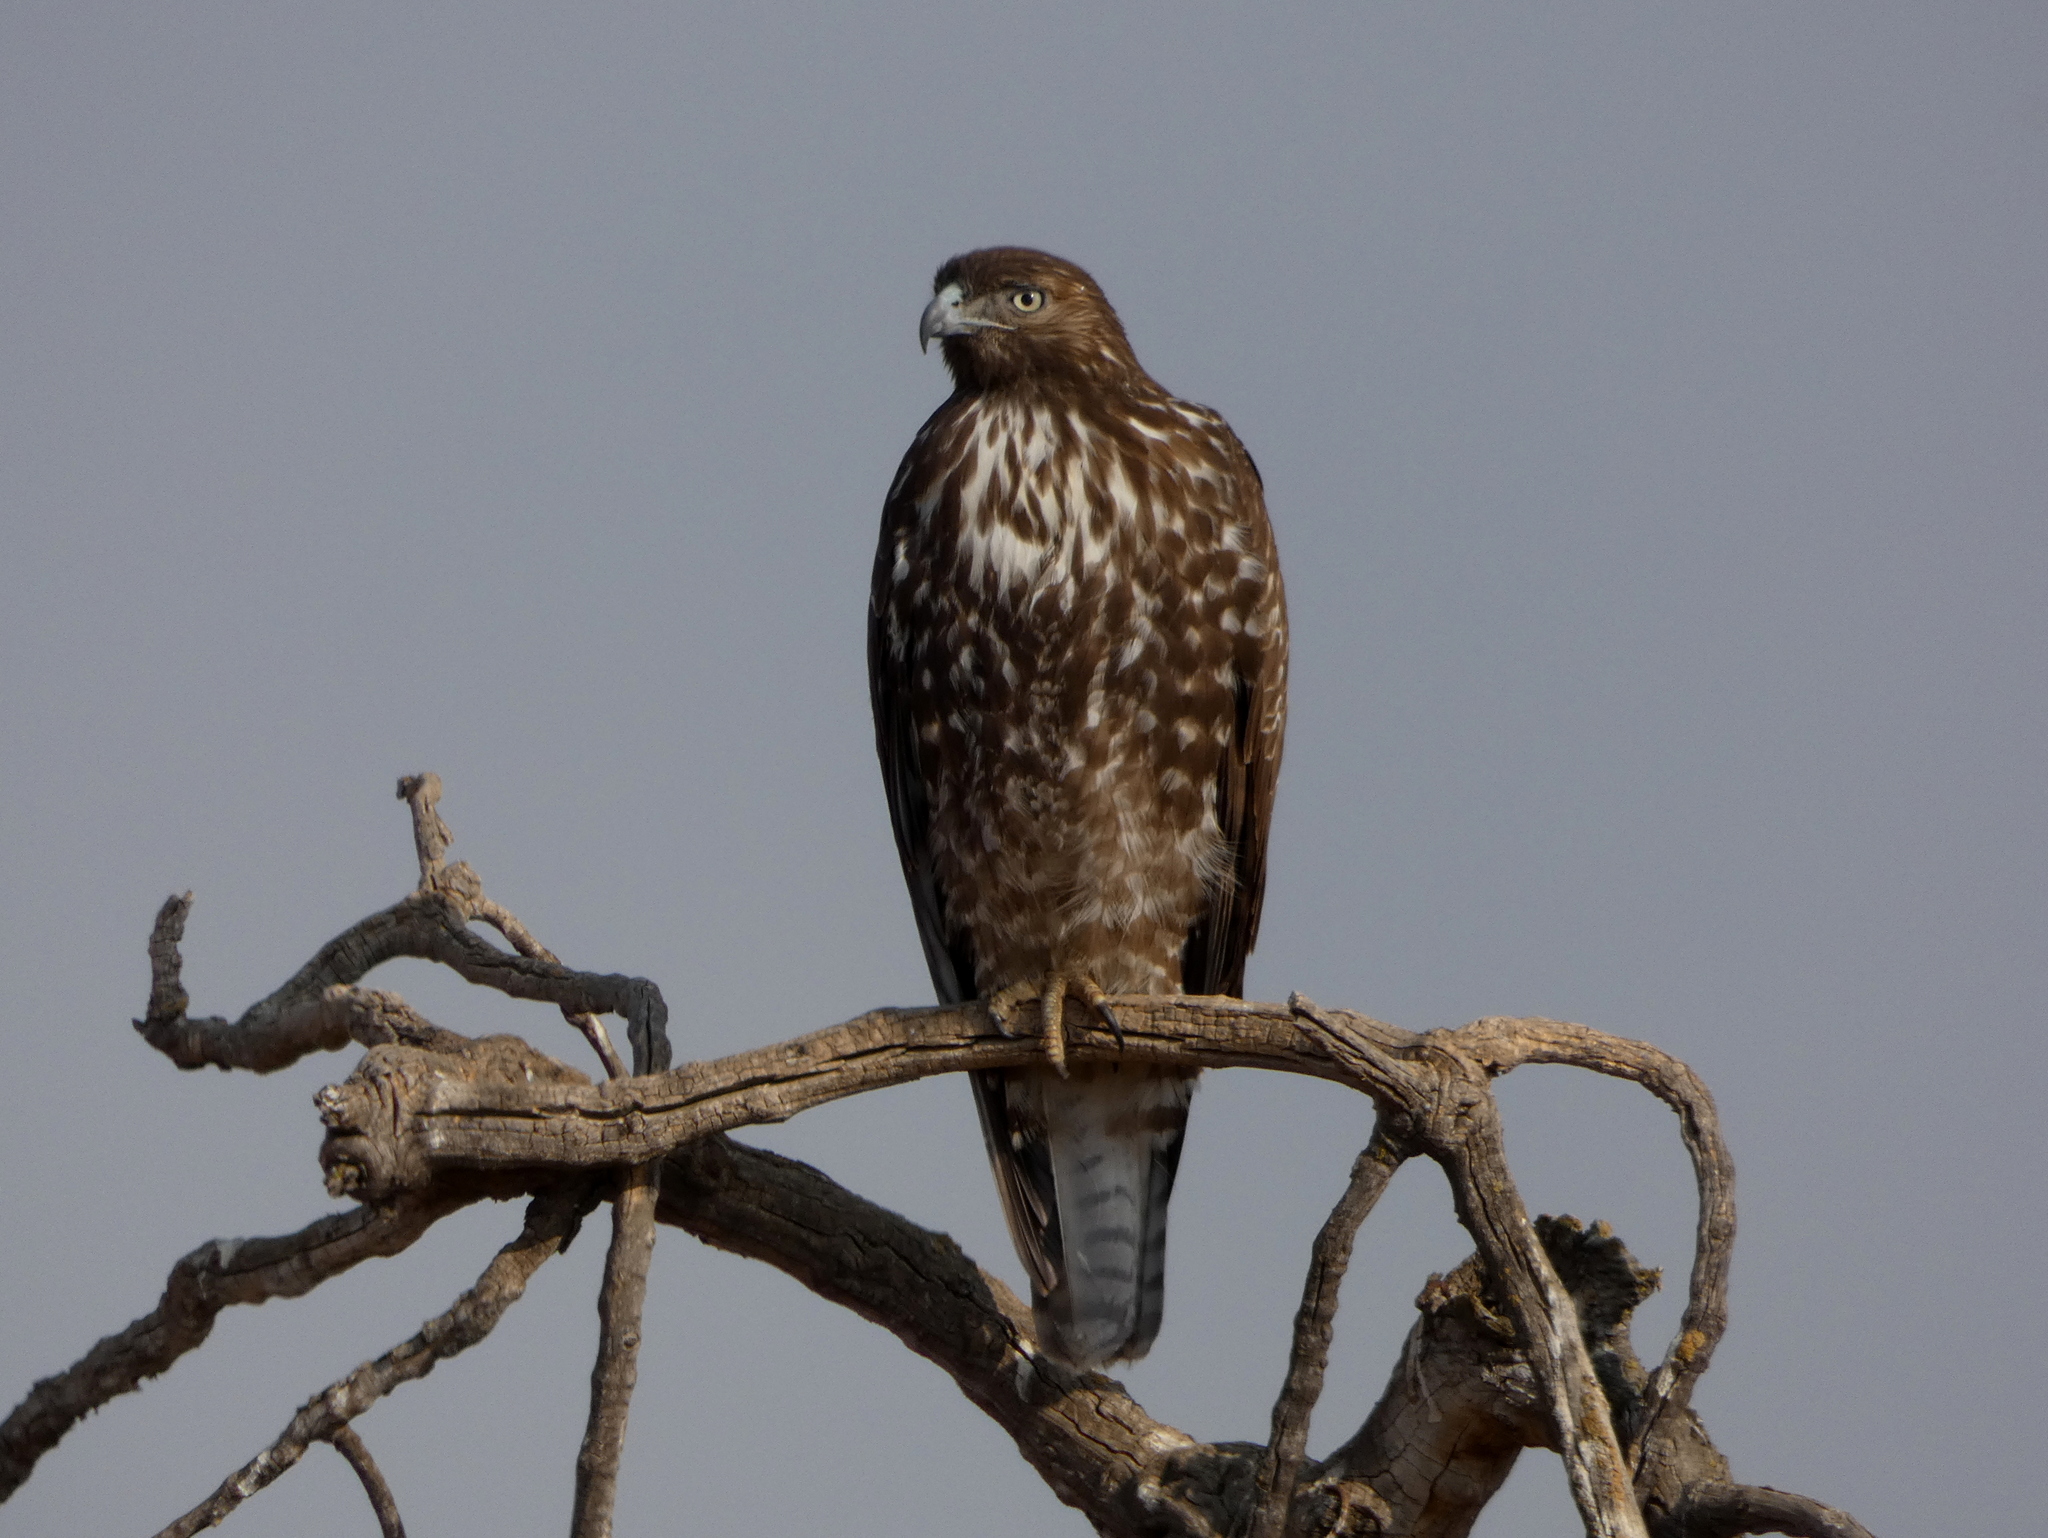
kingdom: Animalia
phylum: Chordata
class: Aves
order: Accipitriformes
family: Accipitridae
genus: Buteo
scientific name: Buteo jamaicensis
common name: Red-tailed hawk
